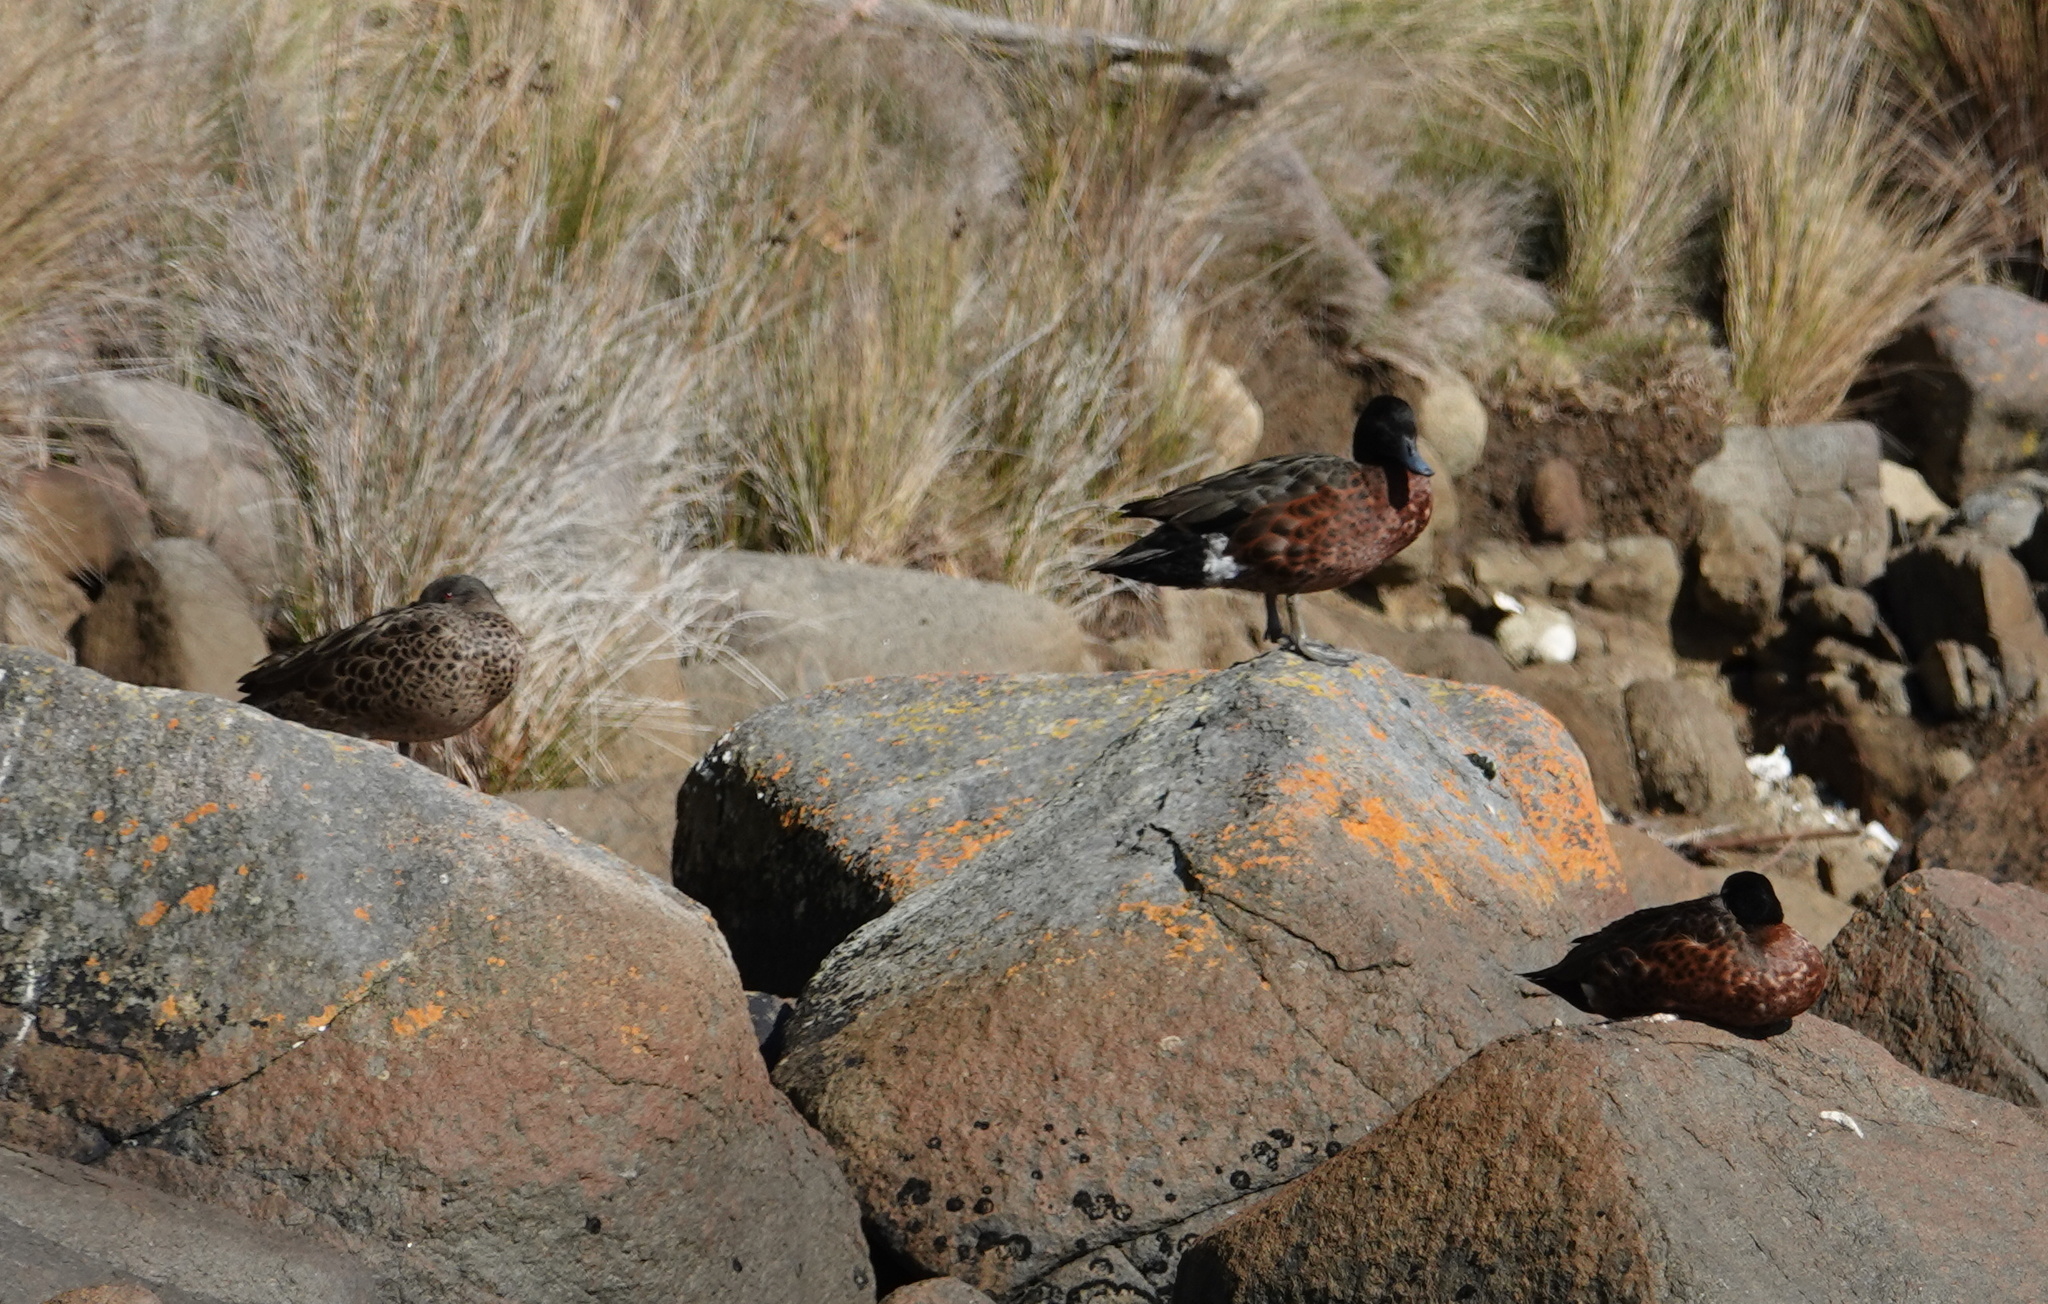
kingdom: Animalia
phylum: Chordata
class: Aves
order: Anseriformes
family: Anatidae
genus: Anas
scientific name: Anas castanea
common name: Chestnut teal
